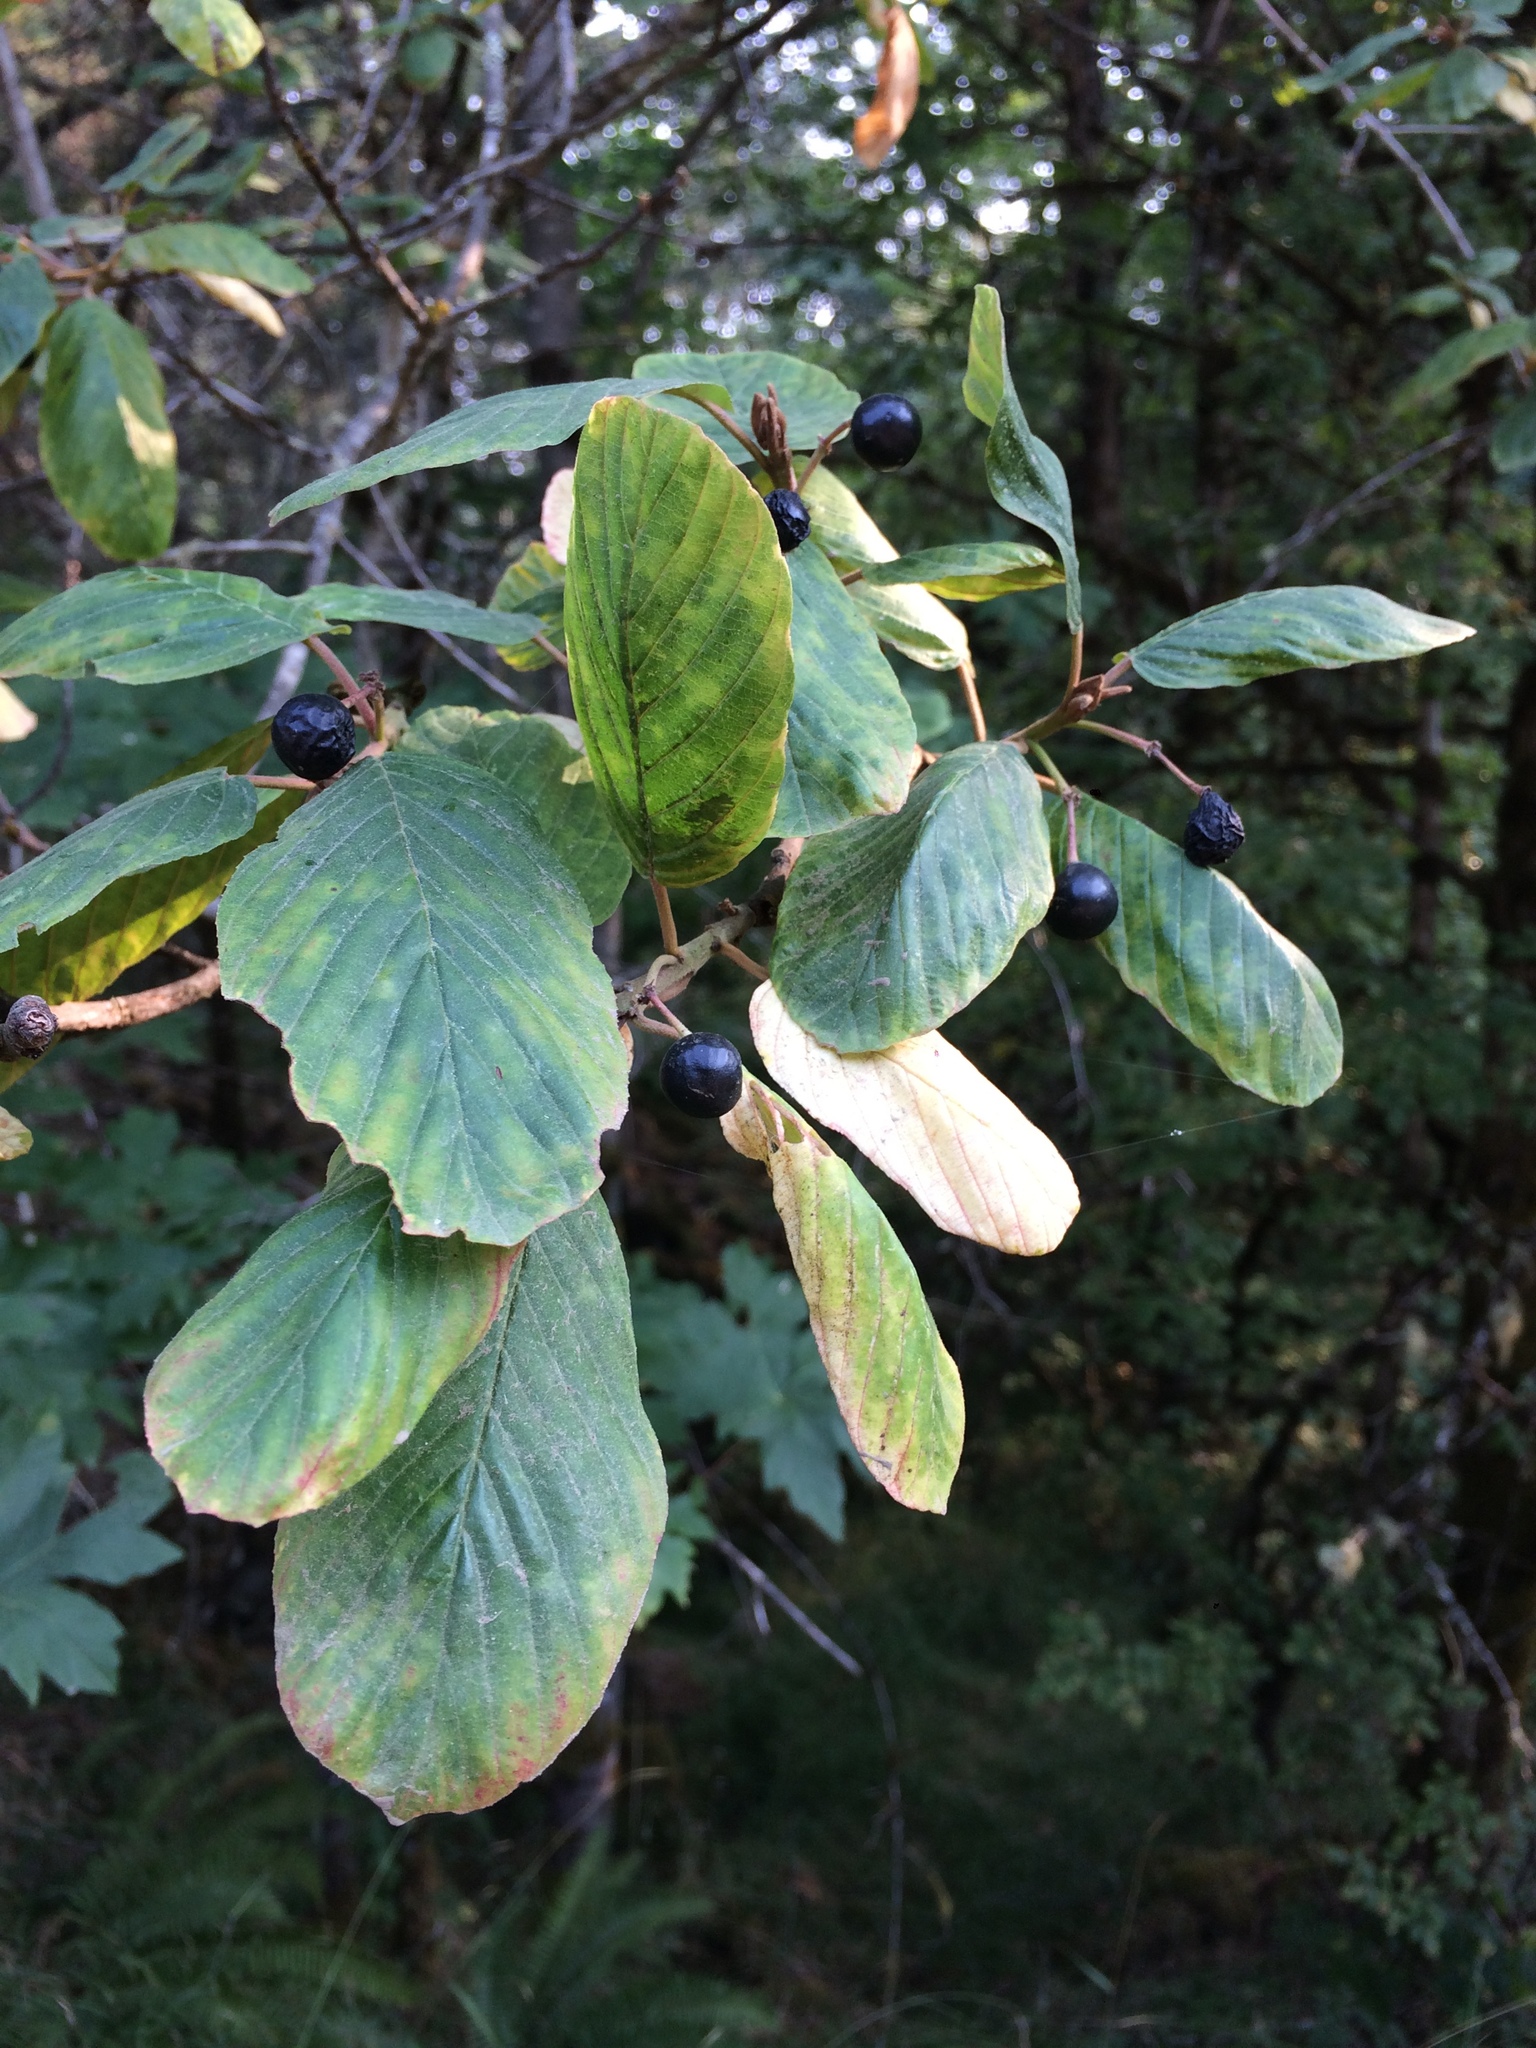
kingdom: Plantae
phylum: Tracheophyta
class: Magnoliopsida
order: Rosales
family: Rhamnaceae
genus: Frangula
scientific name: Frangula purshiana
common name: Cascara buckthorn
